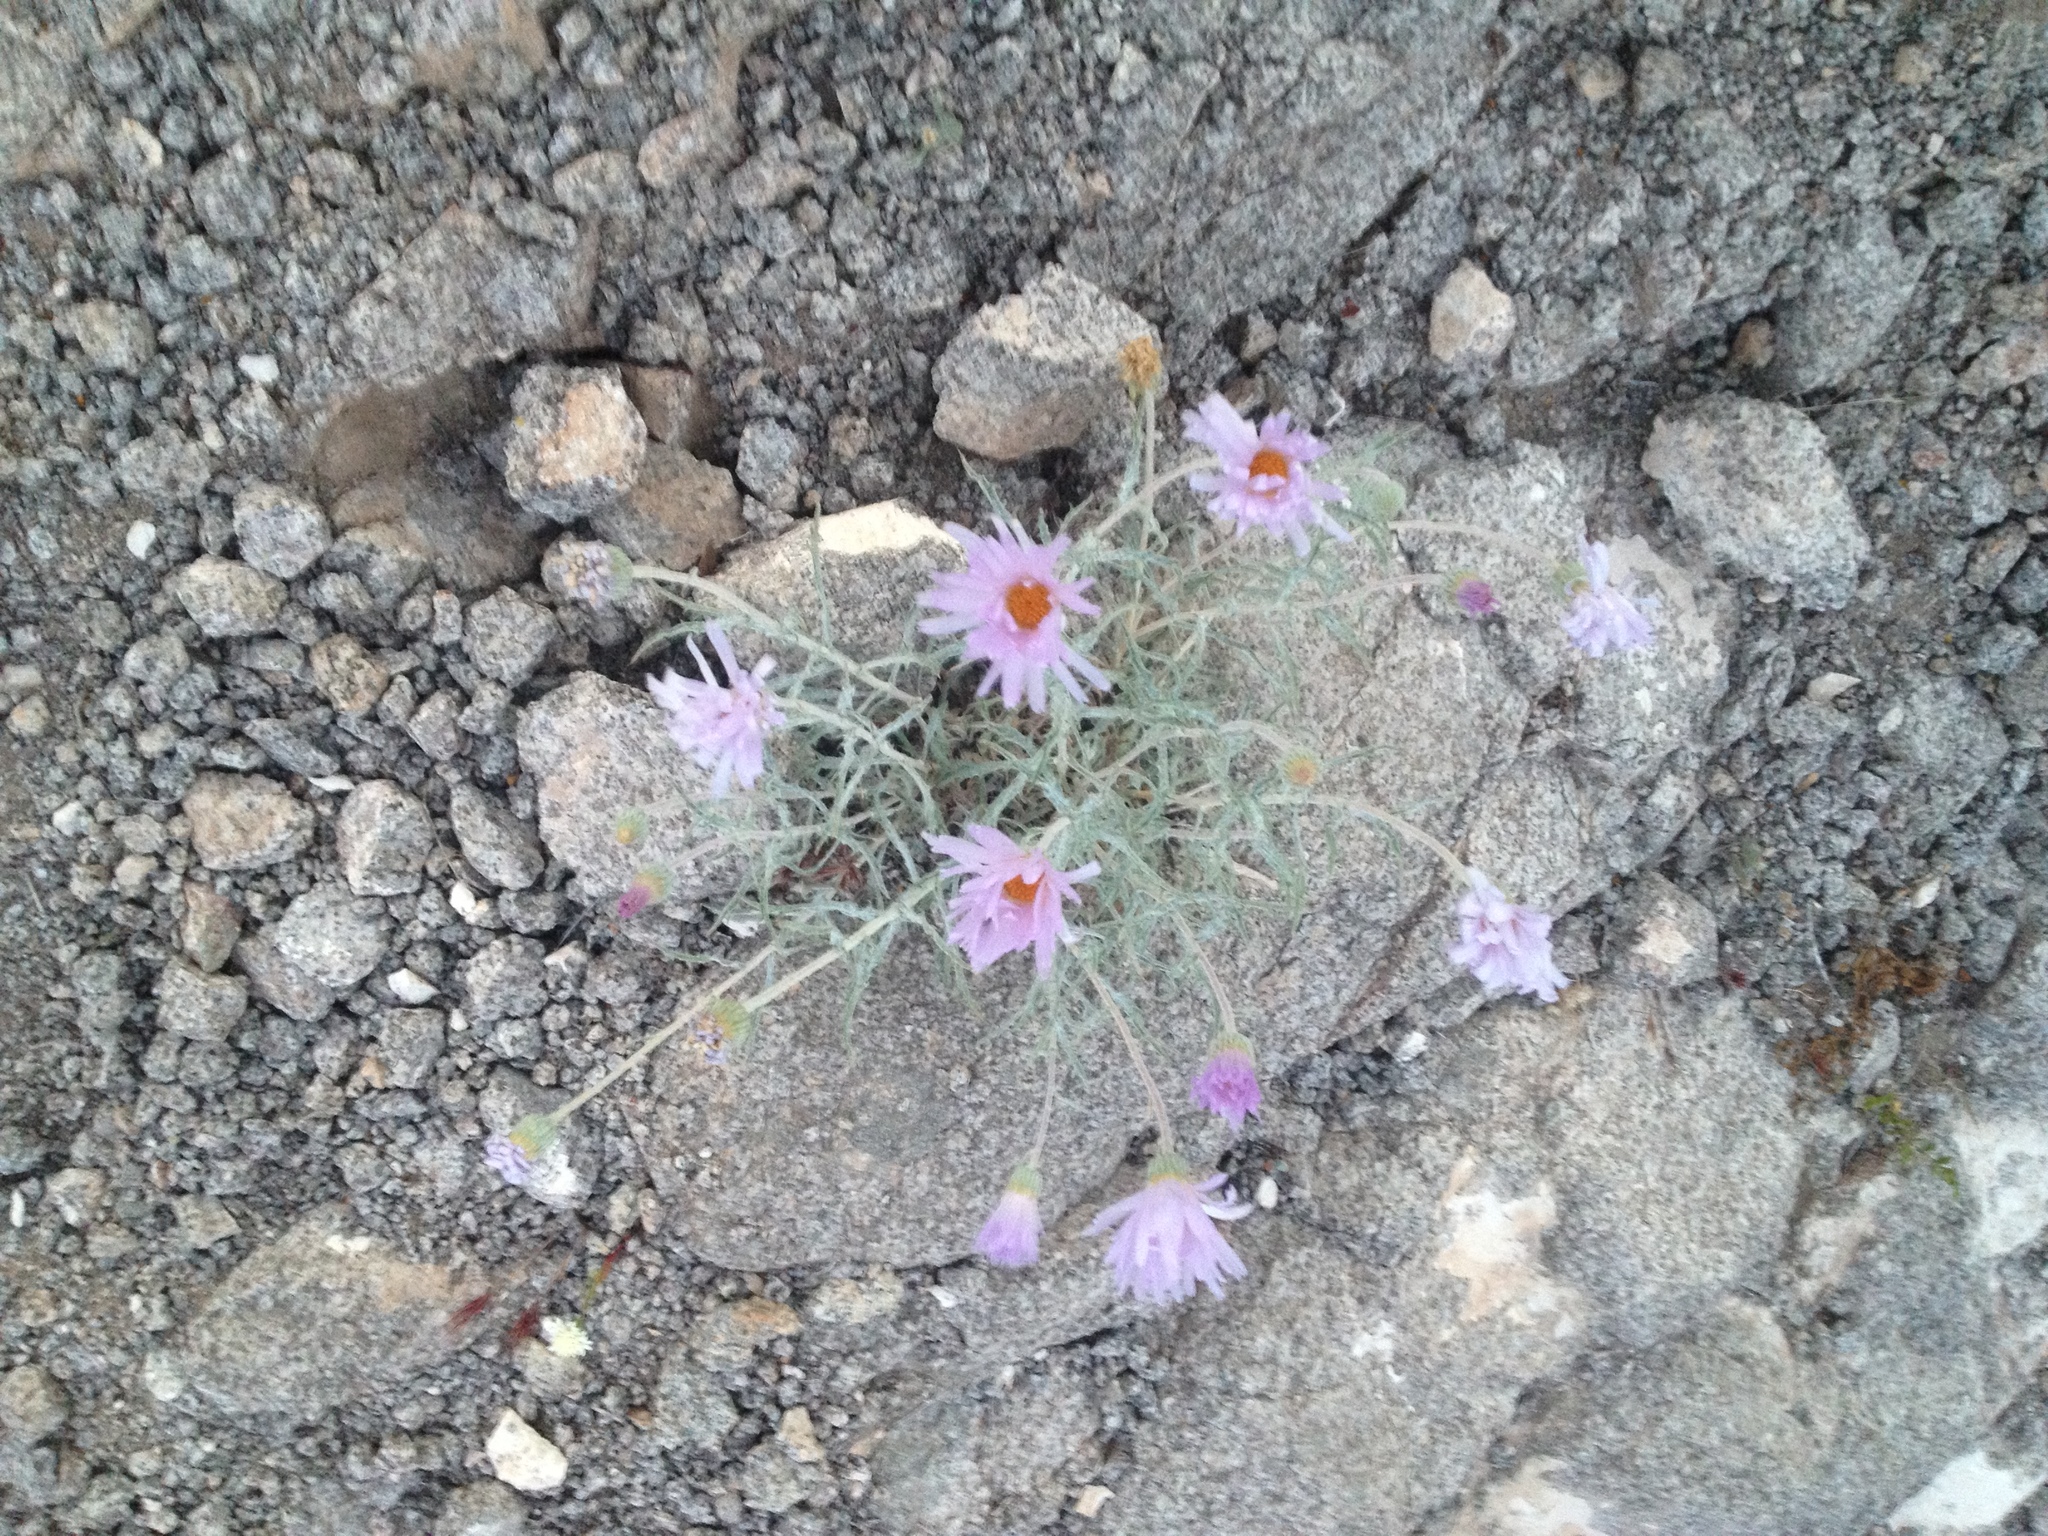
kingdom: Plantae
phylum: Tracheophyta
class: Magnoliopsida
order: Asterales
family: Asteraceae
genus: Xylorhiza
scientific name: Xylorhiza tortifolia
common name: Hurt-leaf woody-aster
